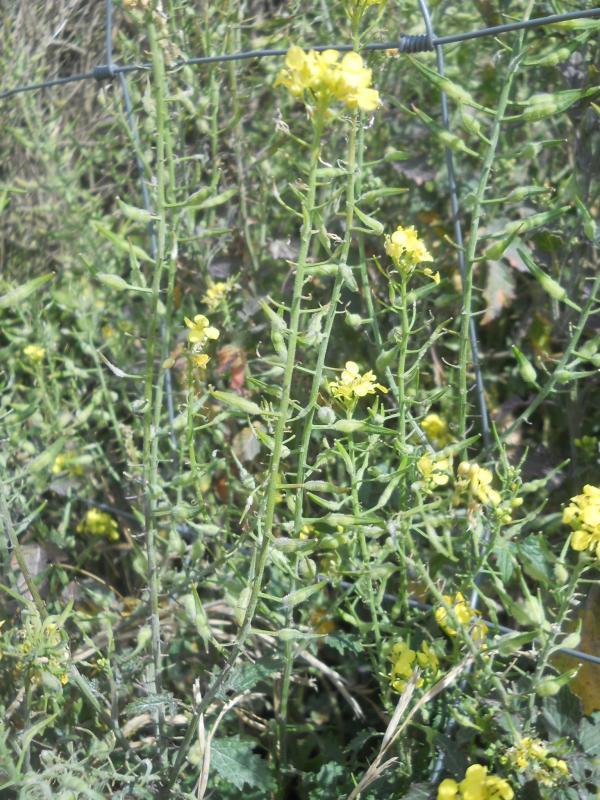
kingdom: Plantae
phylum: Tracheophyta
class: Magnoliopsida
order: Brassicales
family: Brassicaceae
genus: Sinapis
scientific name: Sinapis alba
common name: White mustard
